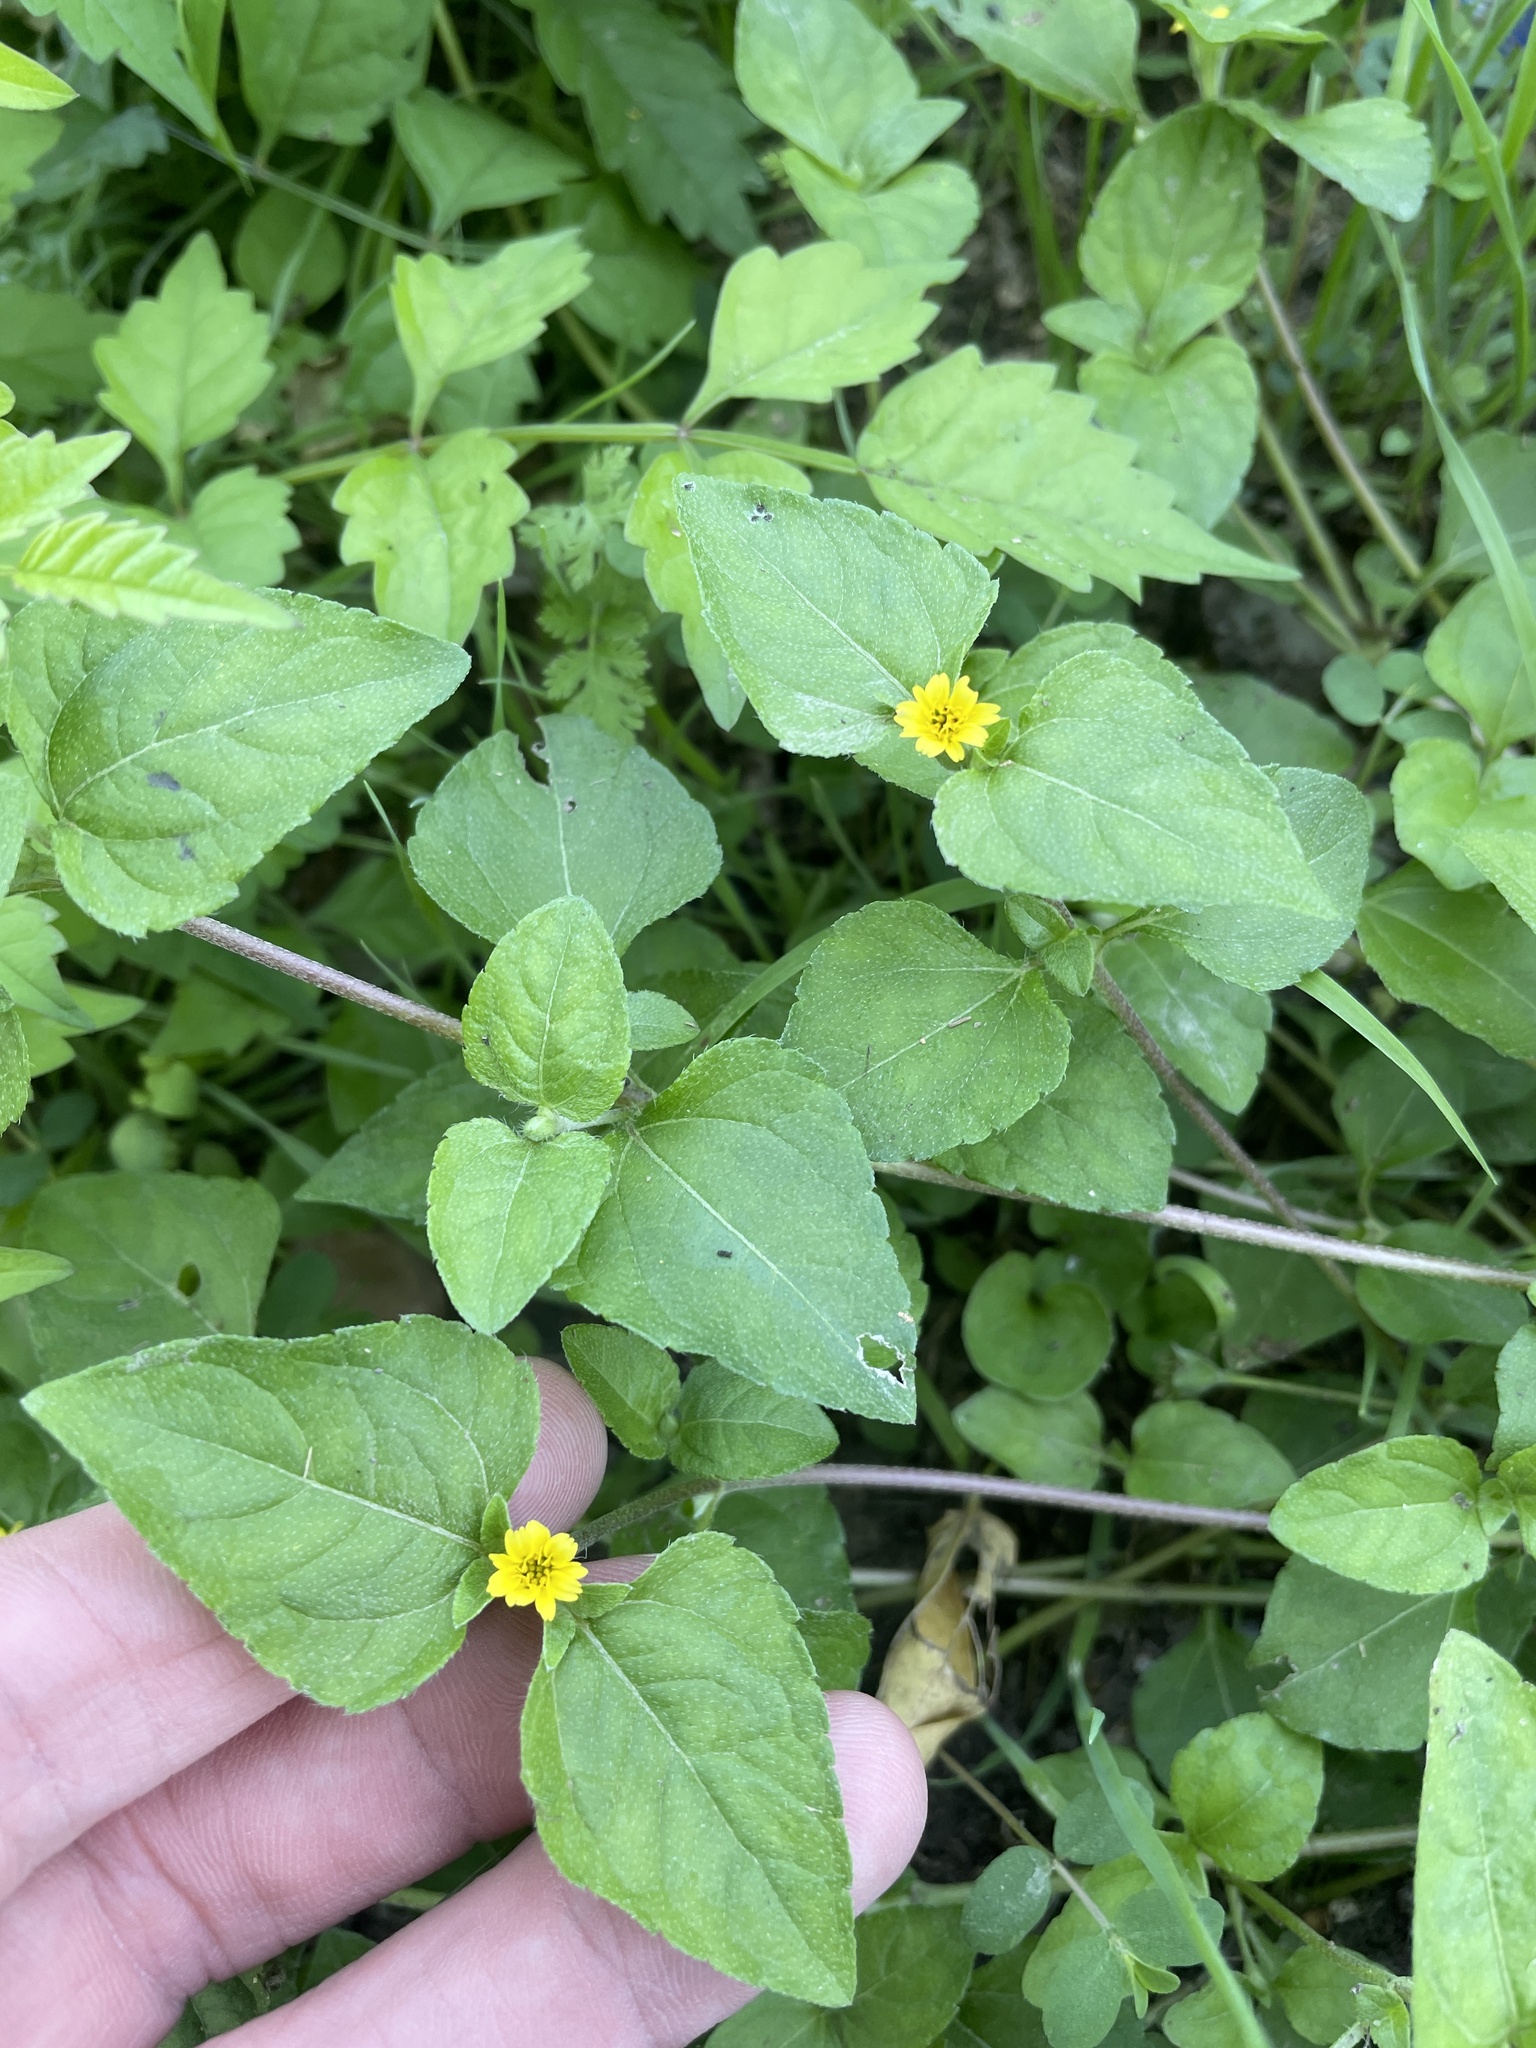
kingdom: Plantae
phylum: Tracheophyta
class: Magnoliopsida
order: Asterales
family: Asteraceae
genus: Calyptocarpus
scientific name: Calyptocarpus vialis
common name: Straggler daisy
